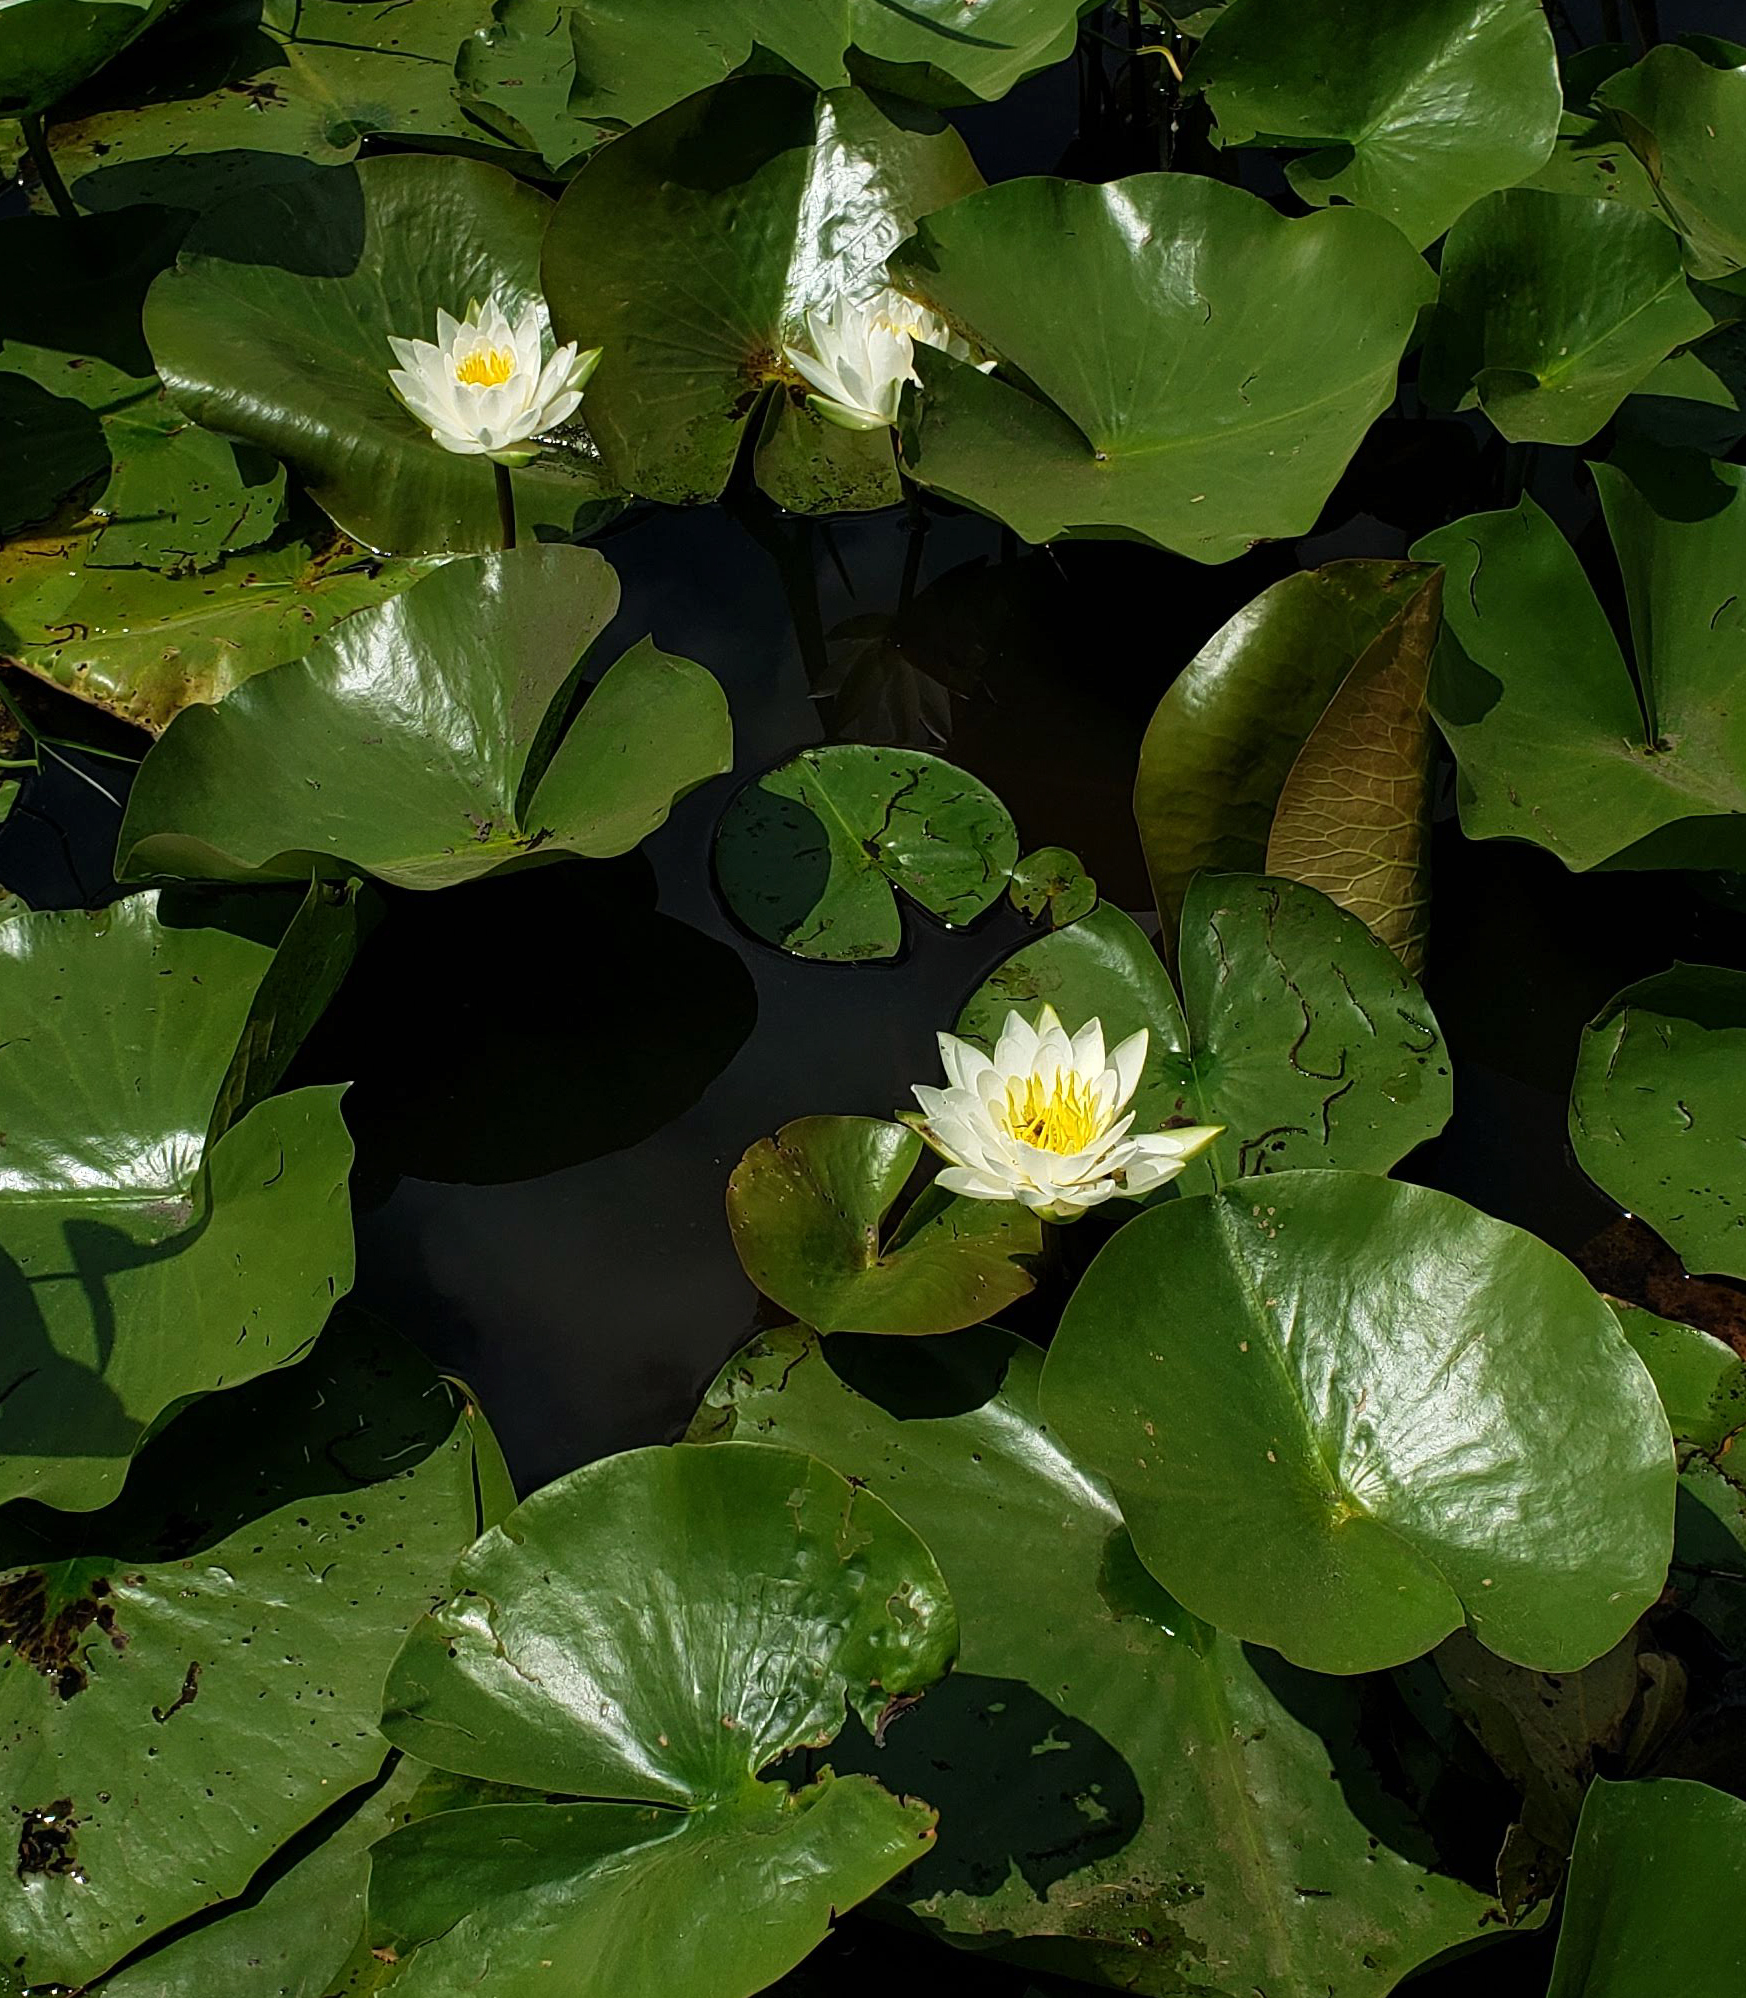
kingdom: Plantae
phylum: Tracheophyta
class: Magnoliopsida
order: Nymphaeales
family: Nymphaeaceae
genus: Nymphaea
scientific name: Nymphaea odorata
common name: Fragrant water-lily
